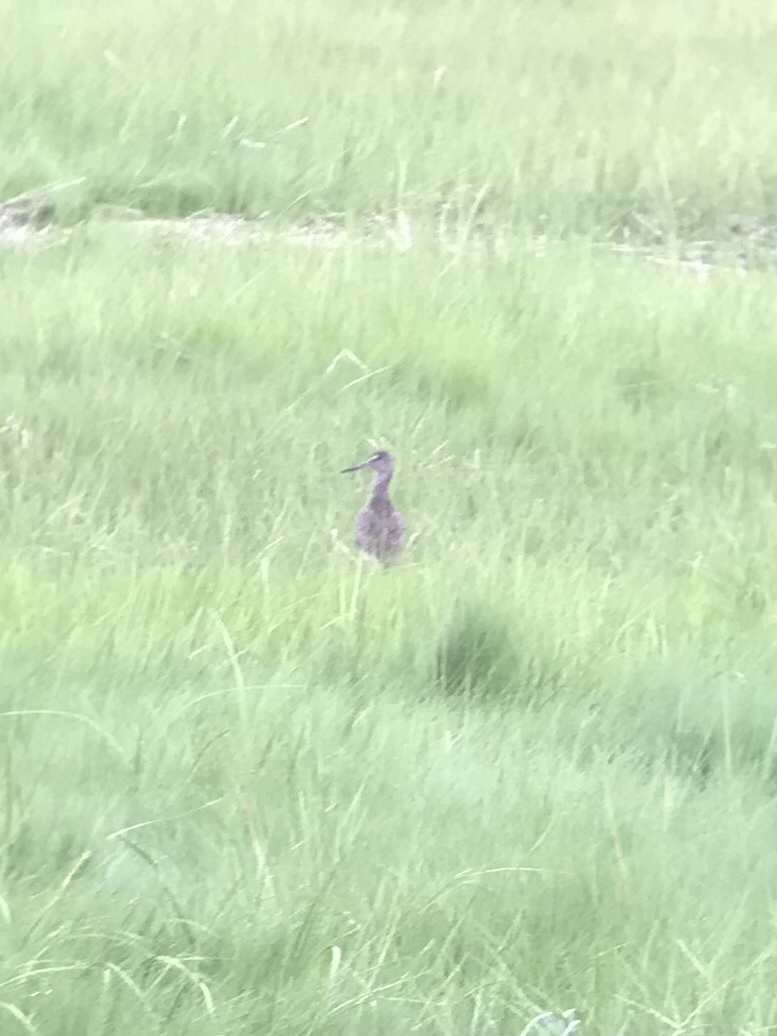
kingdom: Animalia
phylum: Chordata
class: Aves
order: Charadriiformes
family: Scolopacidae
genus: Tringa
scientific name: Tringa semipalmata
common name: Willet
